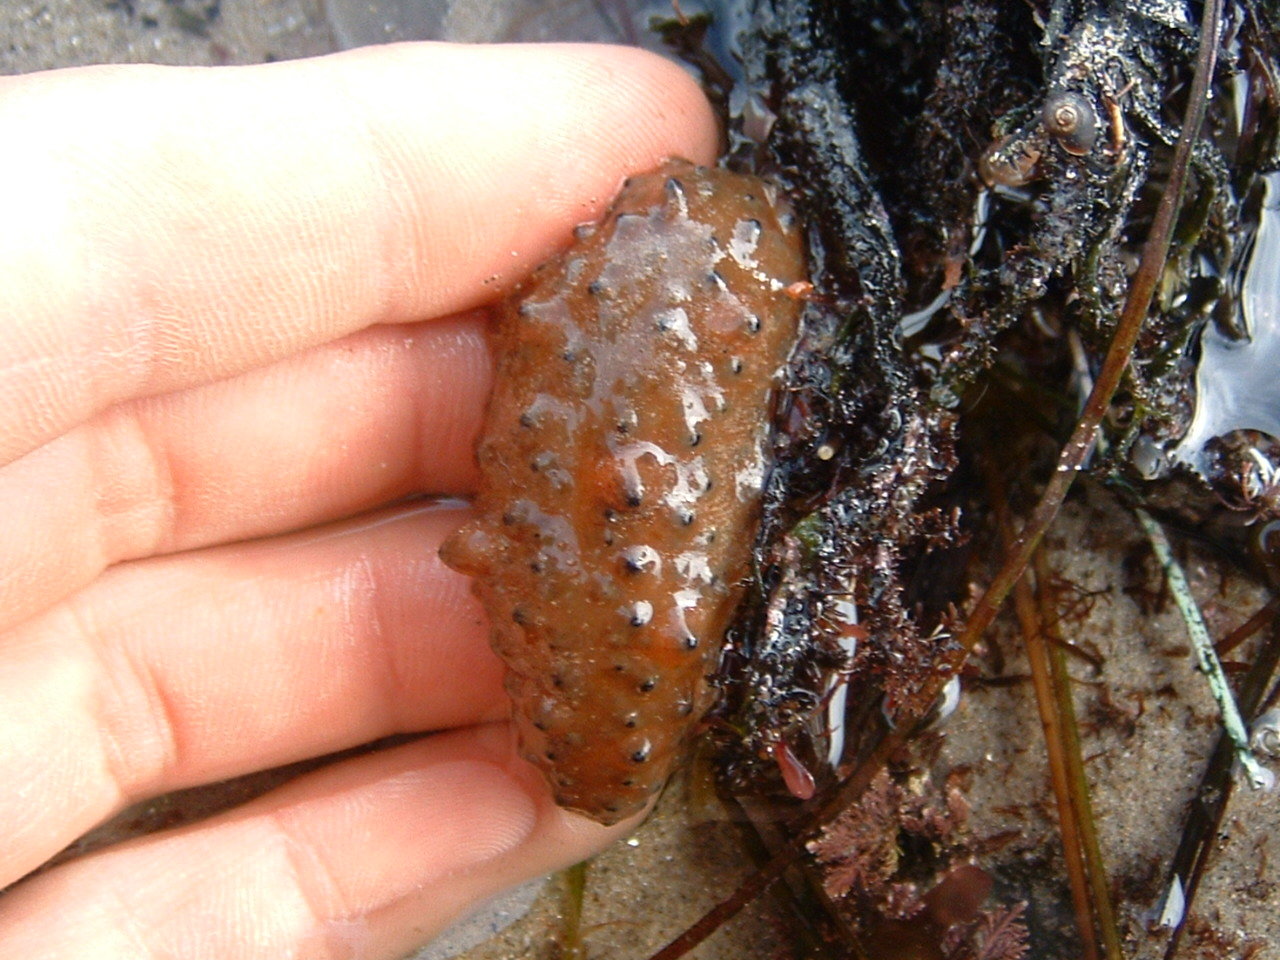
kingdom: Animalia
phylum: Echinodermata
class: Holothuroidea
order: Synallactida
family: Stichopodidae
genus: Apostichopus
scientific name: Apostichopus parvimensis
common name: Warty sea cucumber
